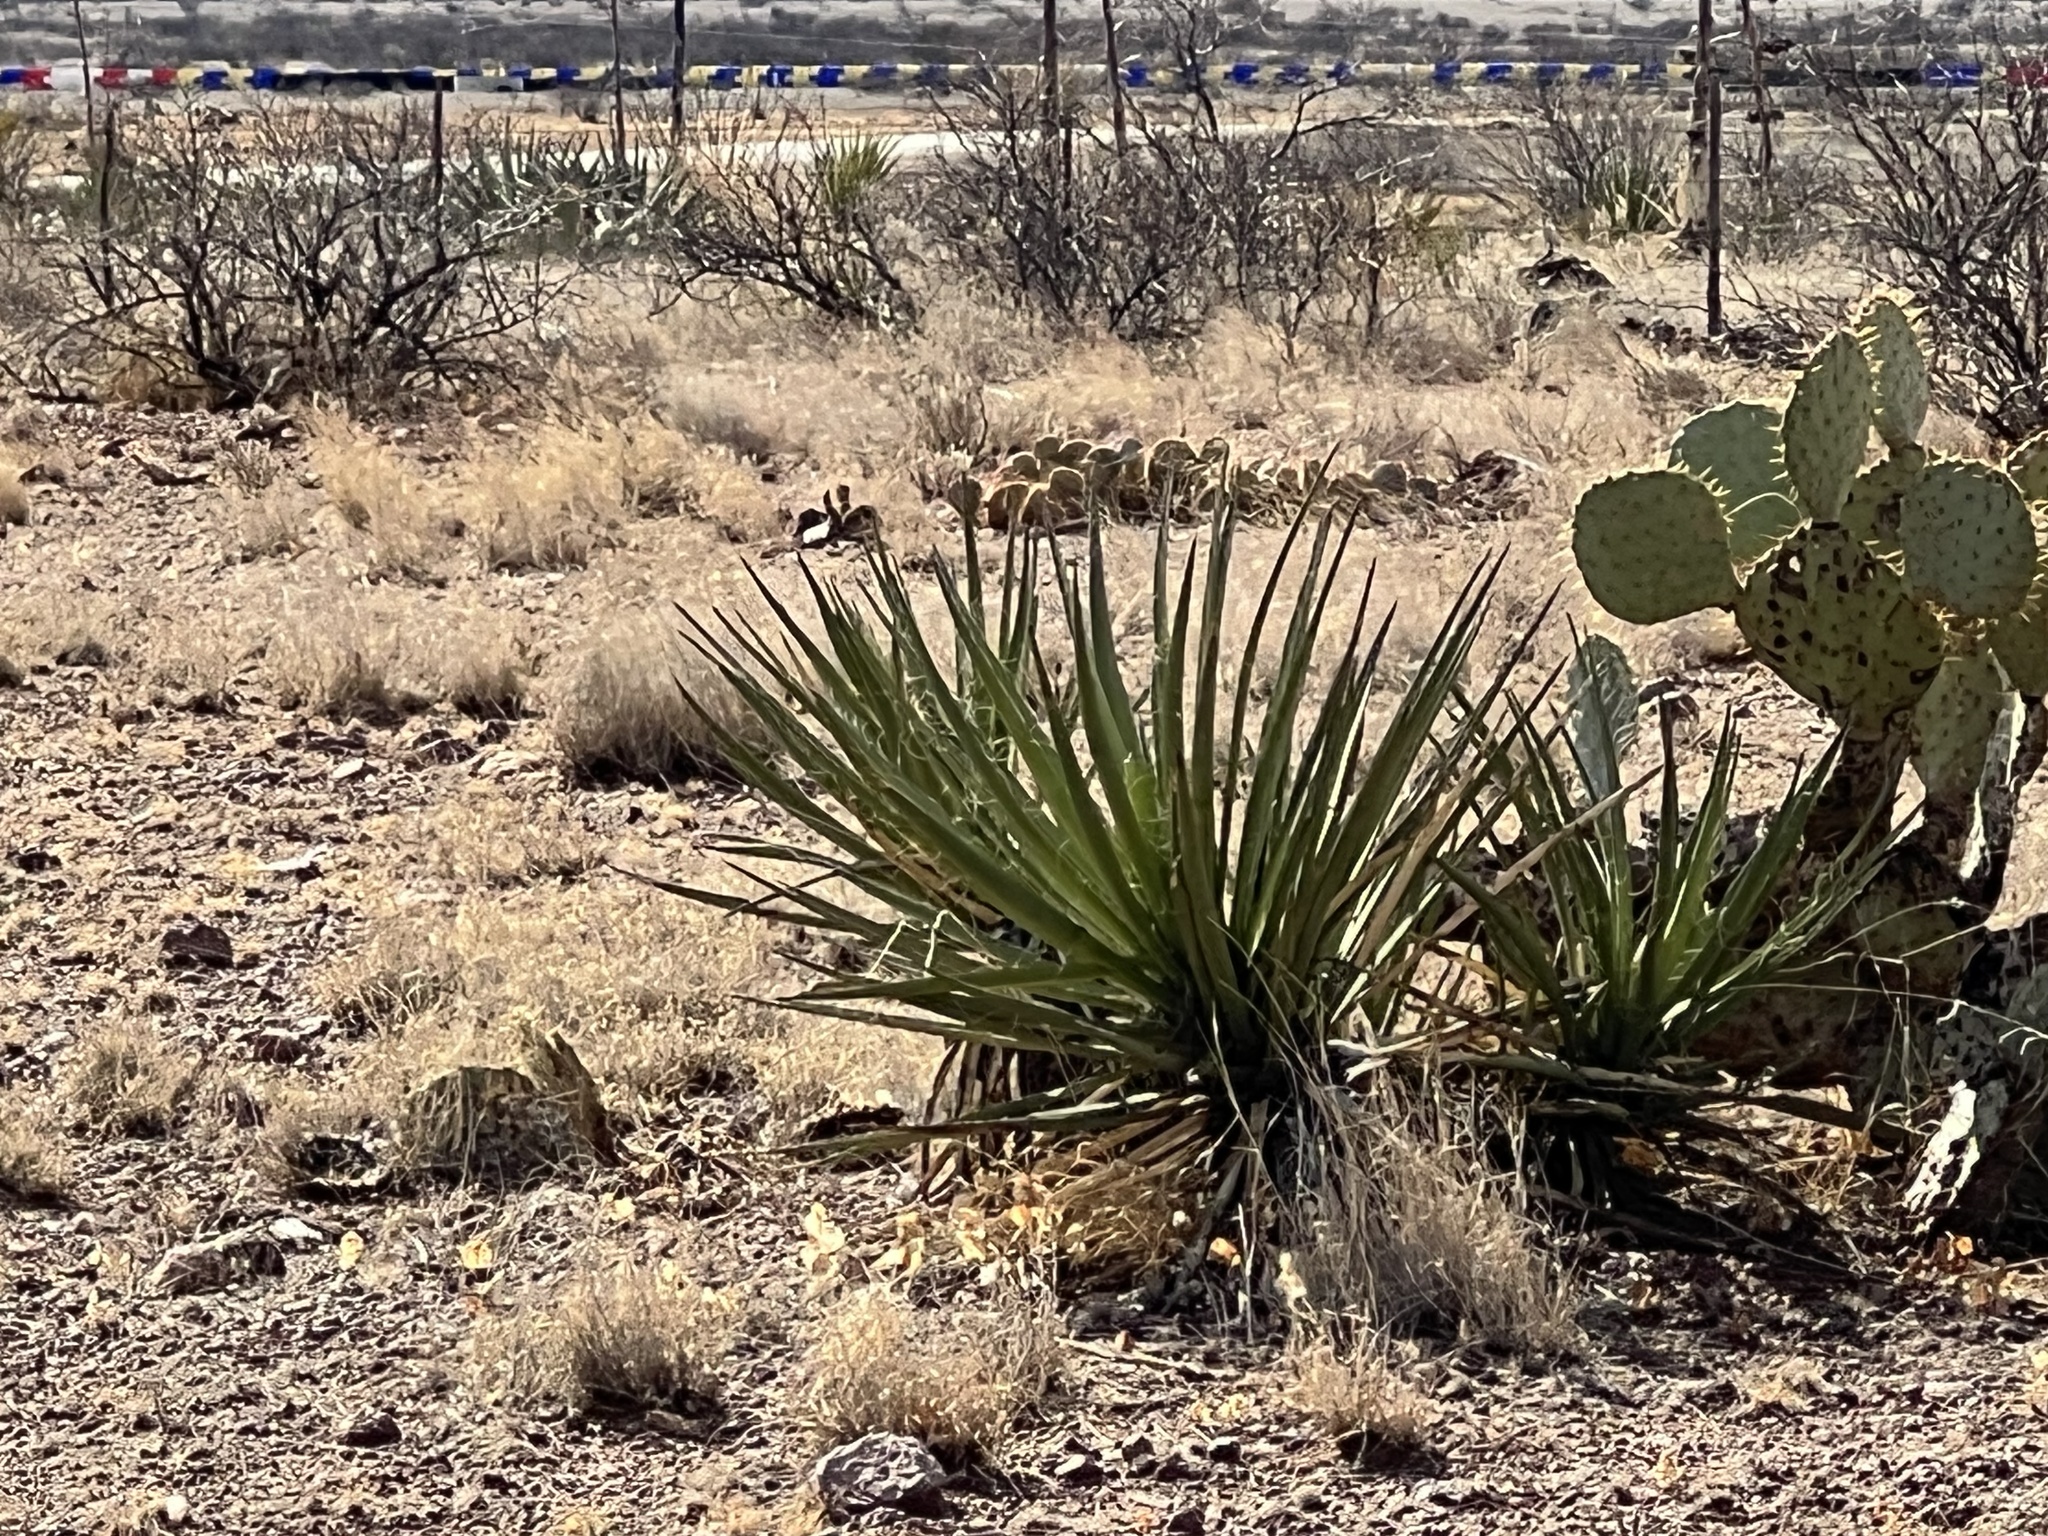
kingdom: Plantae
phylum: Tracheophyta
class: Liliopsida
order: Asparagales
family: Asparagaceae
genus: Yucca
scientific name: Yucca baccata
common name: Banana yucca
